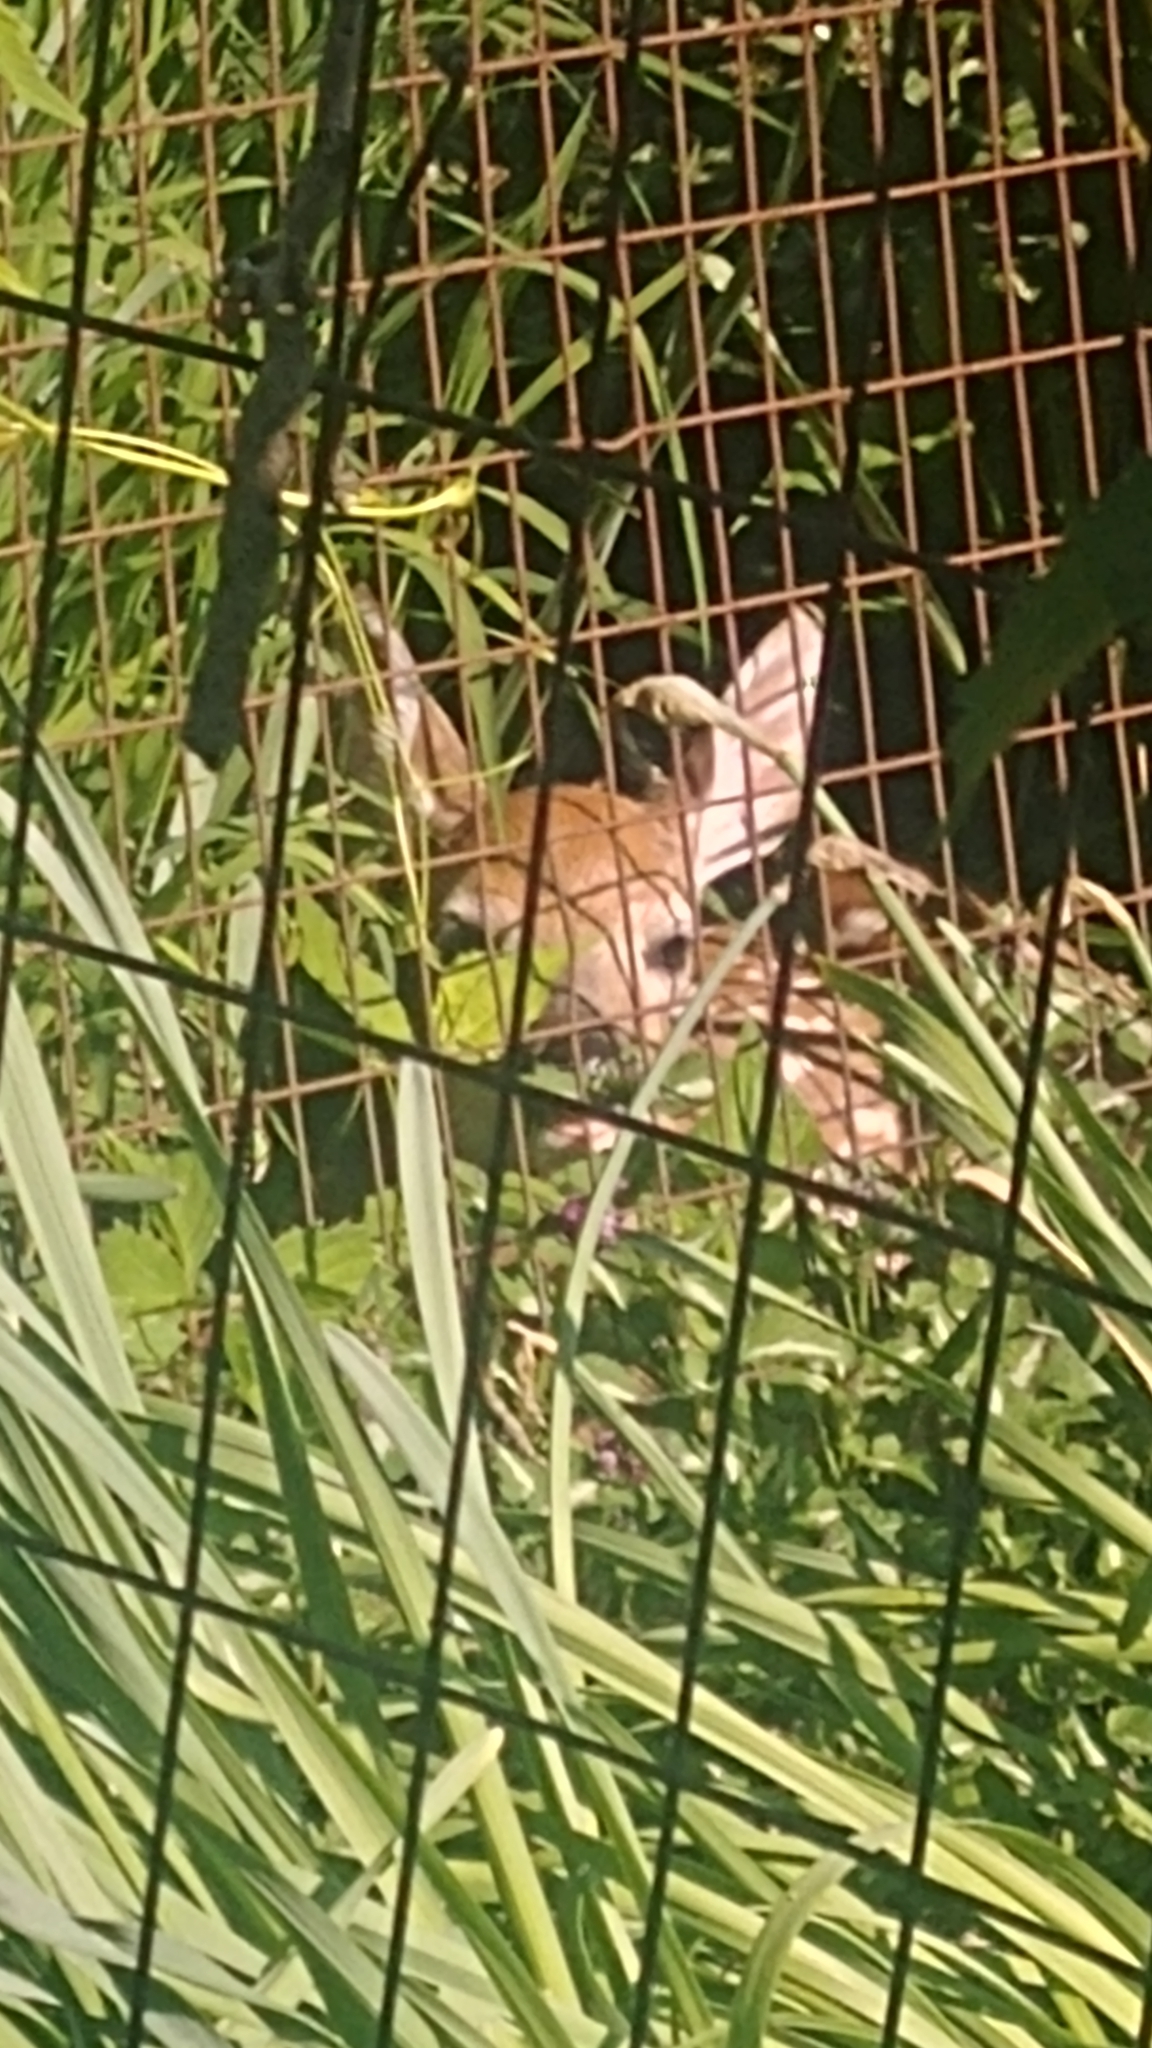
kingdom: Animalia
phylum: Chordata
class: Mammalia
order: Artiodactyla
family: Cervidae
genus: Odocoileus
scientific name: Odocoileus virginianus
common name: White-tailed deer
